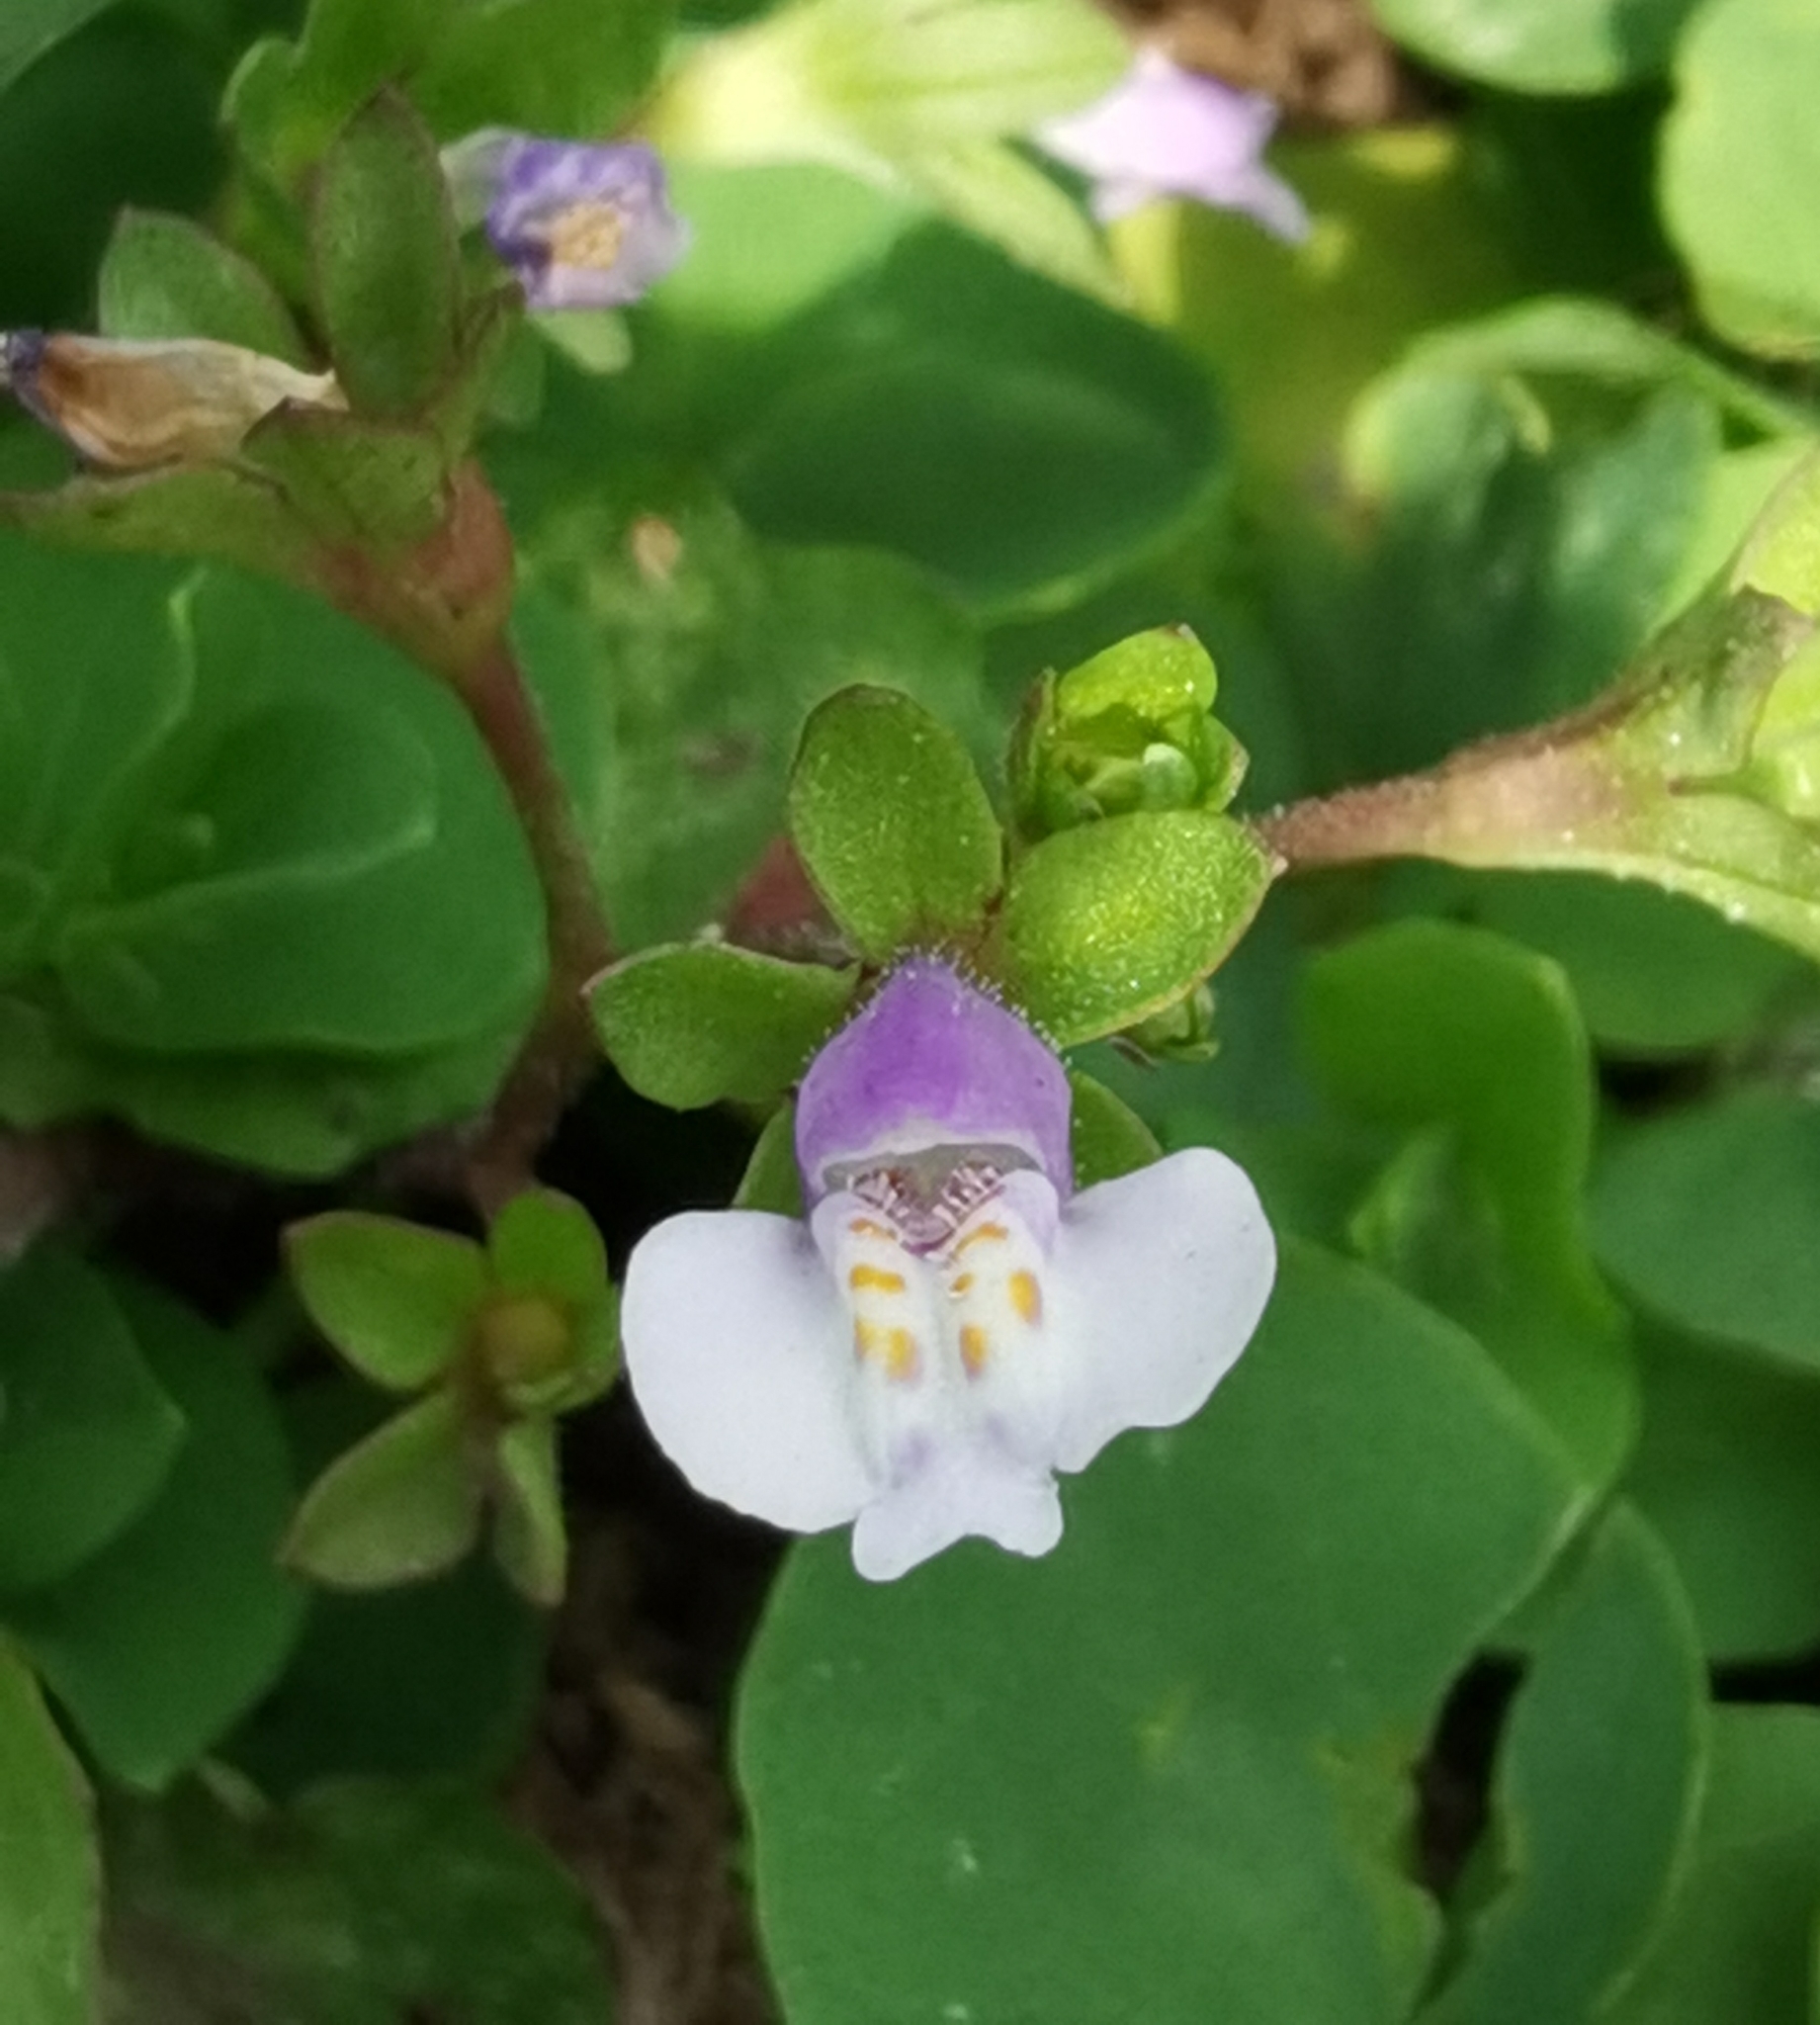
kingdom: Plantae
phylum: Tracheophyta
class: Magnoliopsida
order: Lamiales
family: Mazaceae
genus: Mazus
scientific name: Mazus pumilus
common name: Japanese mazus
